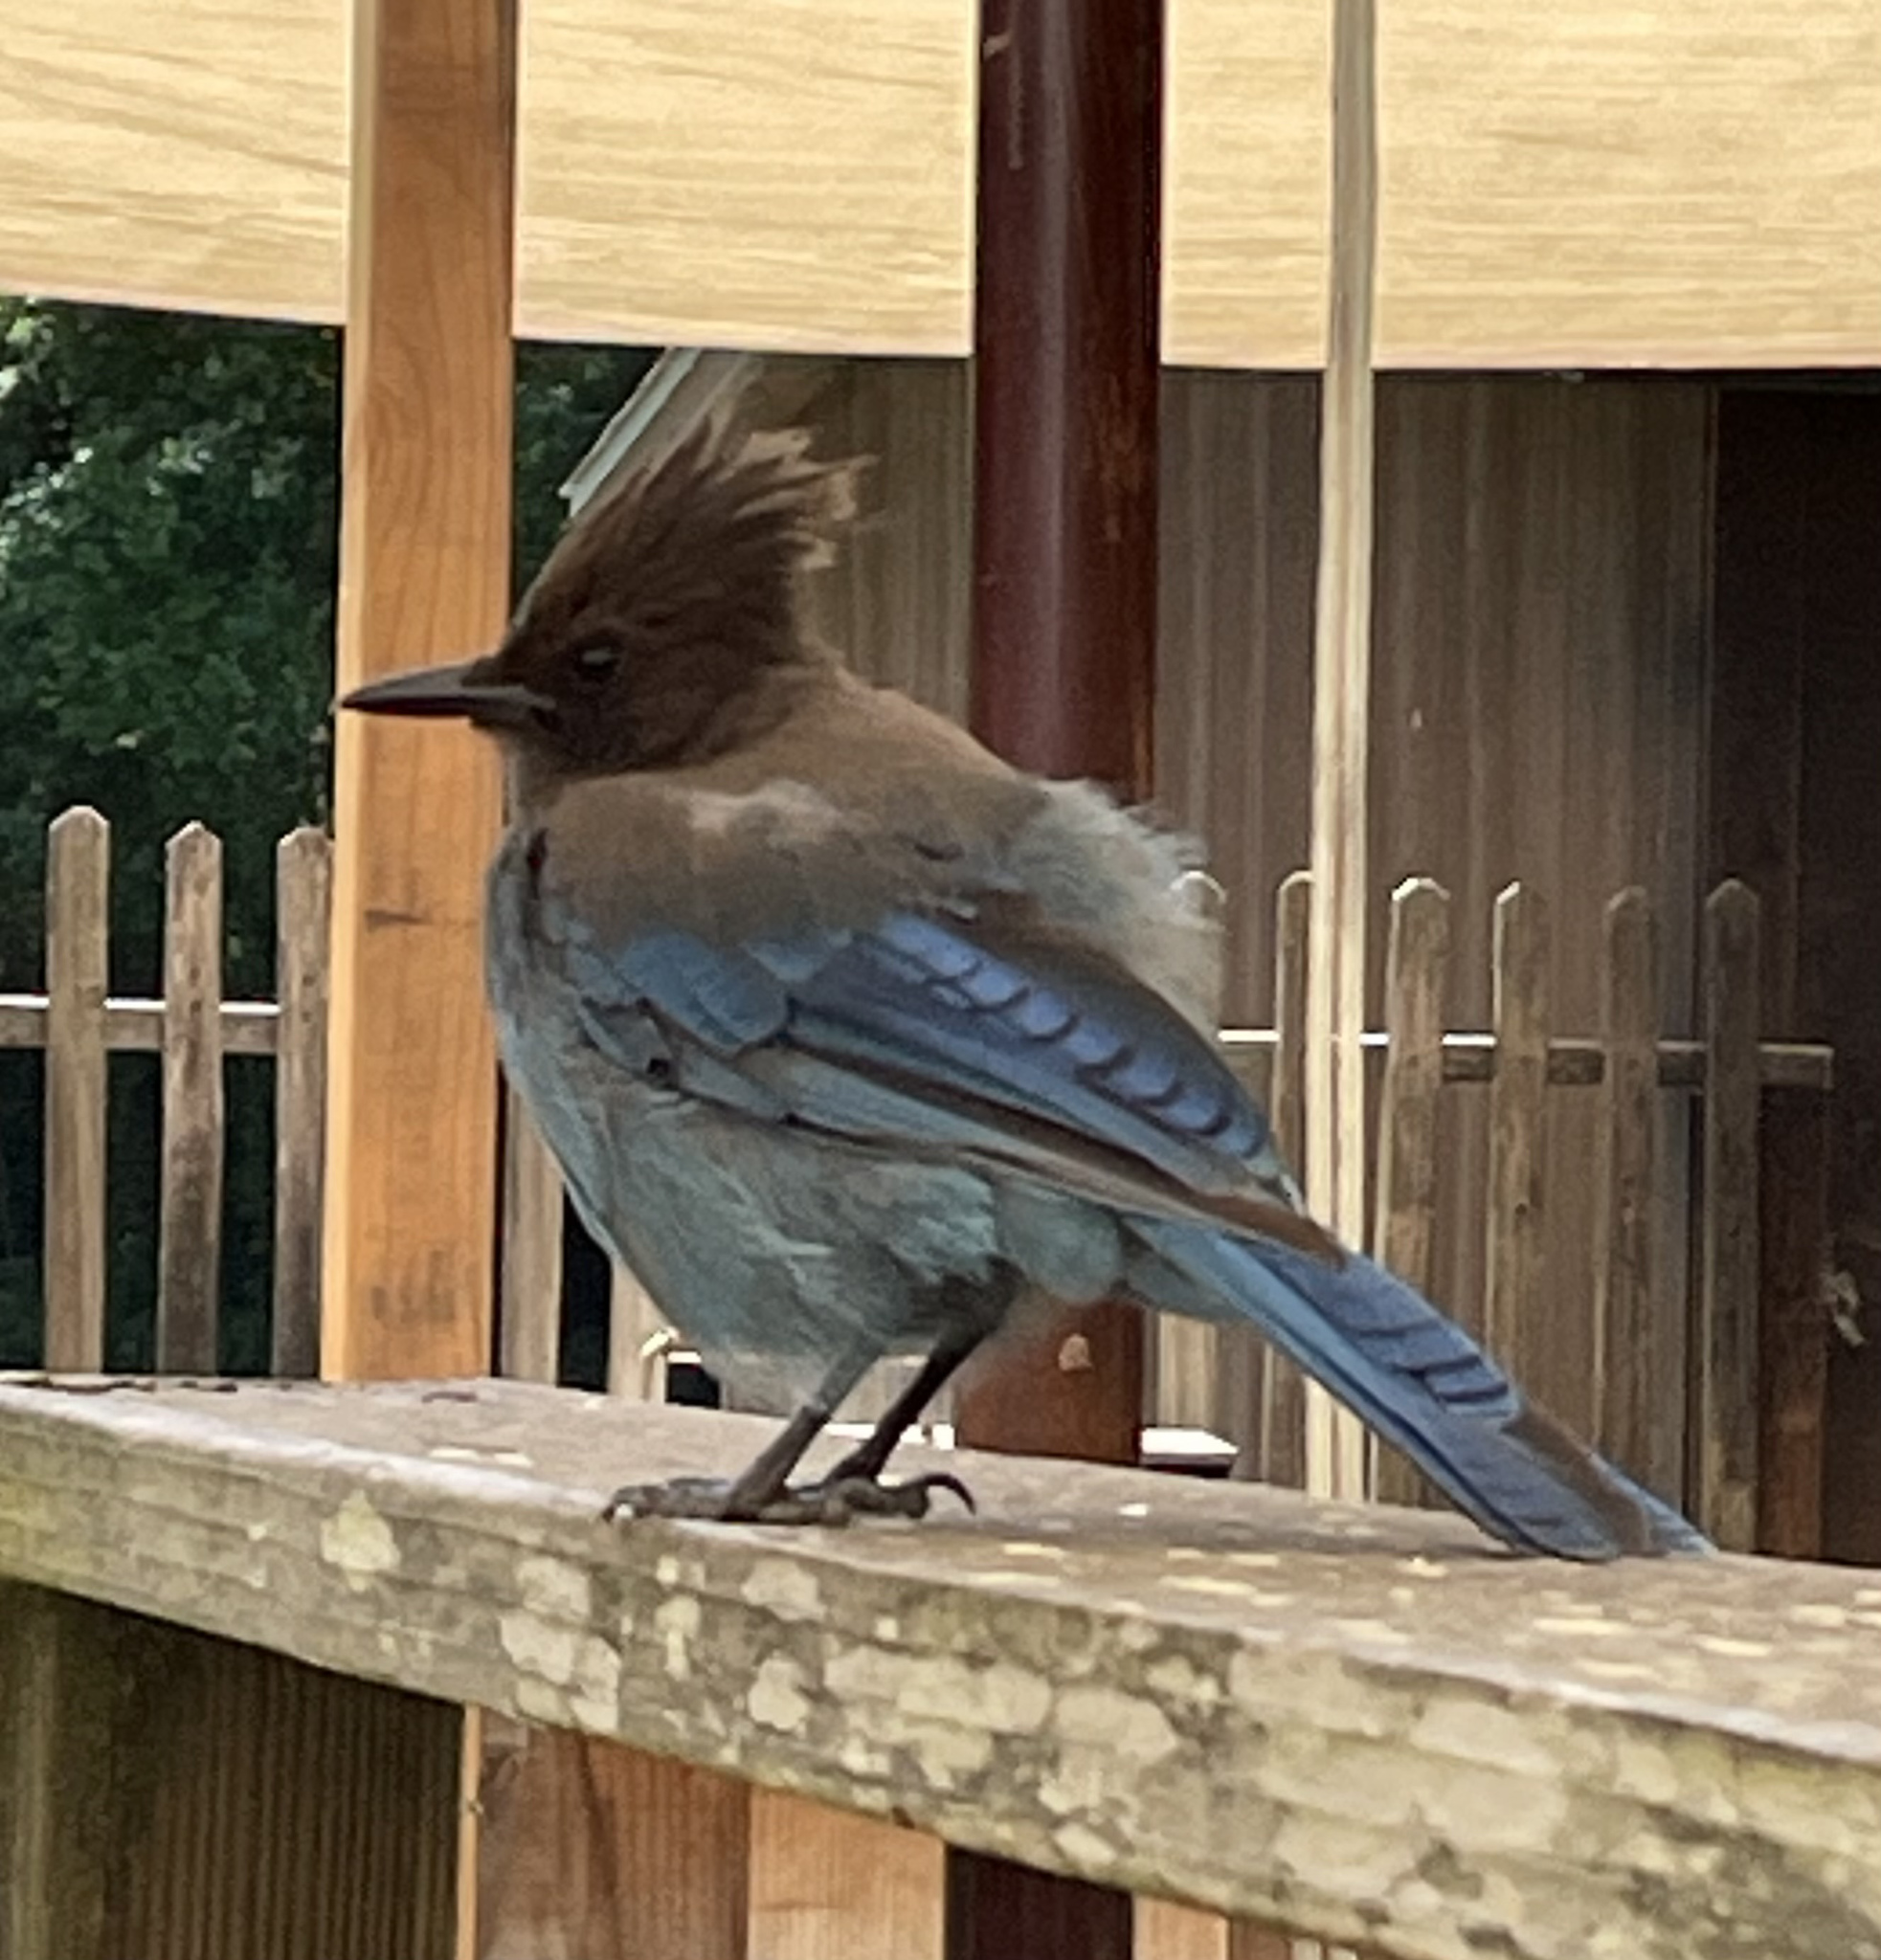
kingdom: Animalia
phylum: Chordata
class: Aves
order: Passeriformes
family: Corvidae
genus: Cyanocitta
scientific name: Cyanocitta stelleri
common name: Steller's jay
